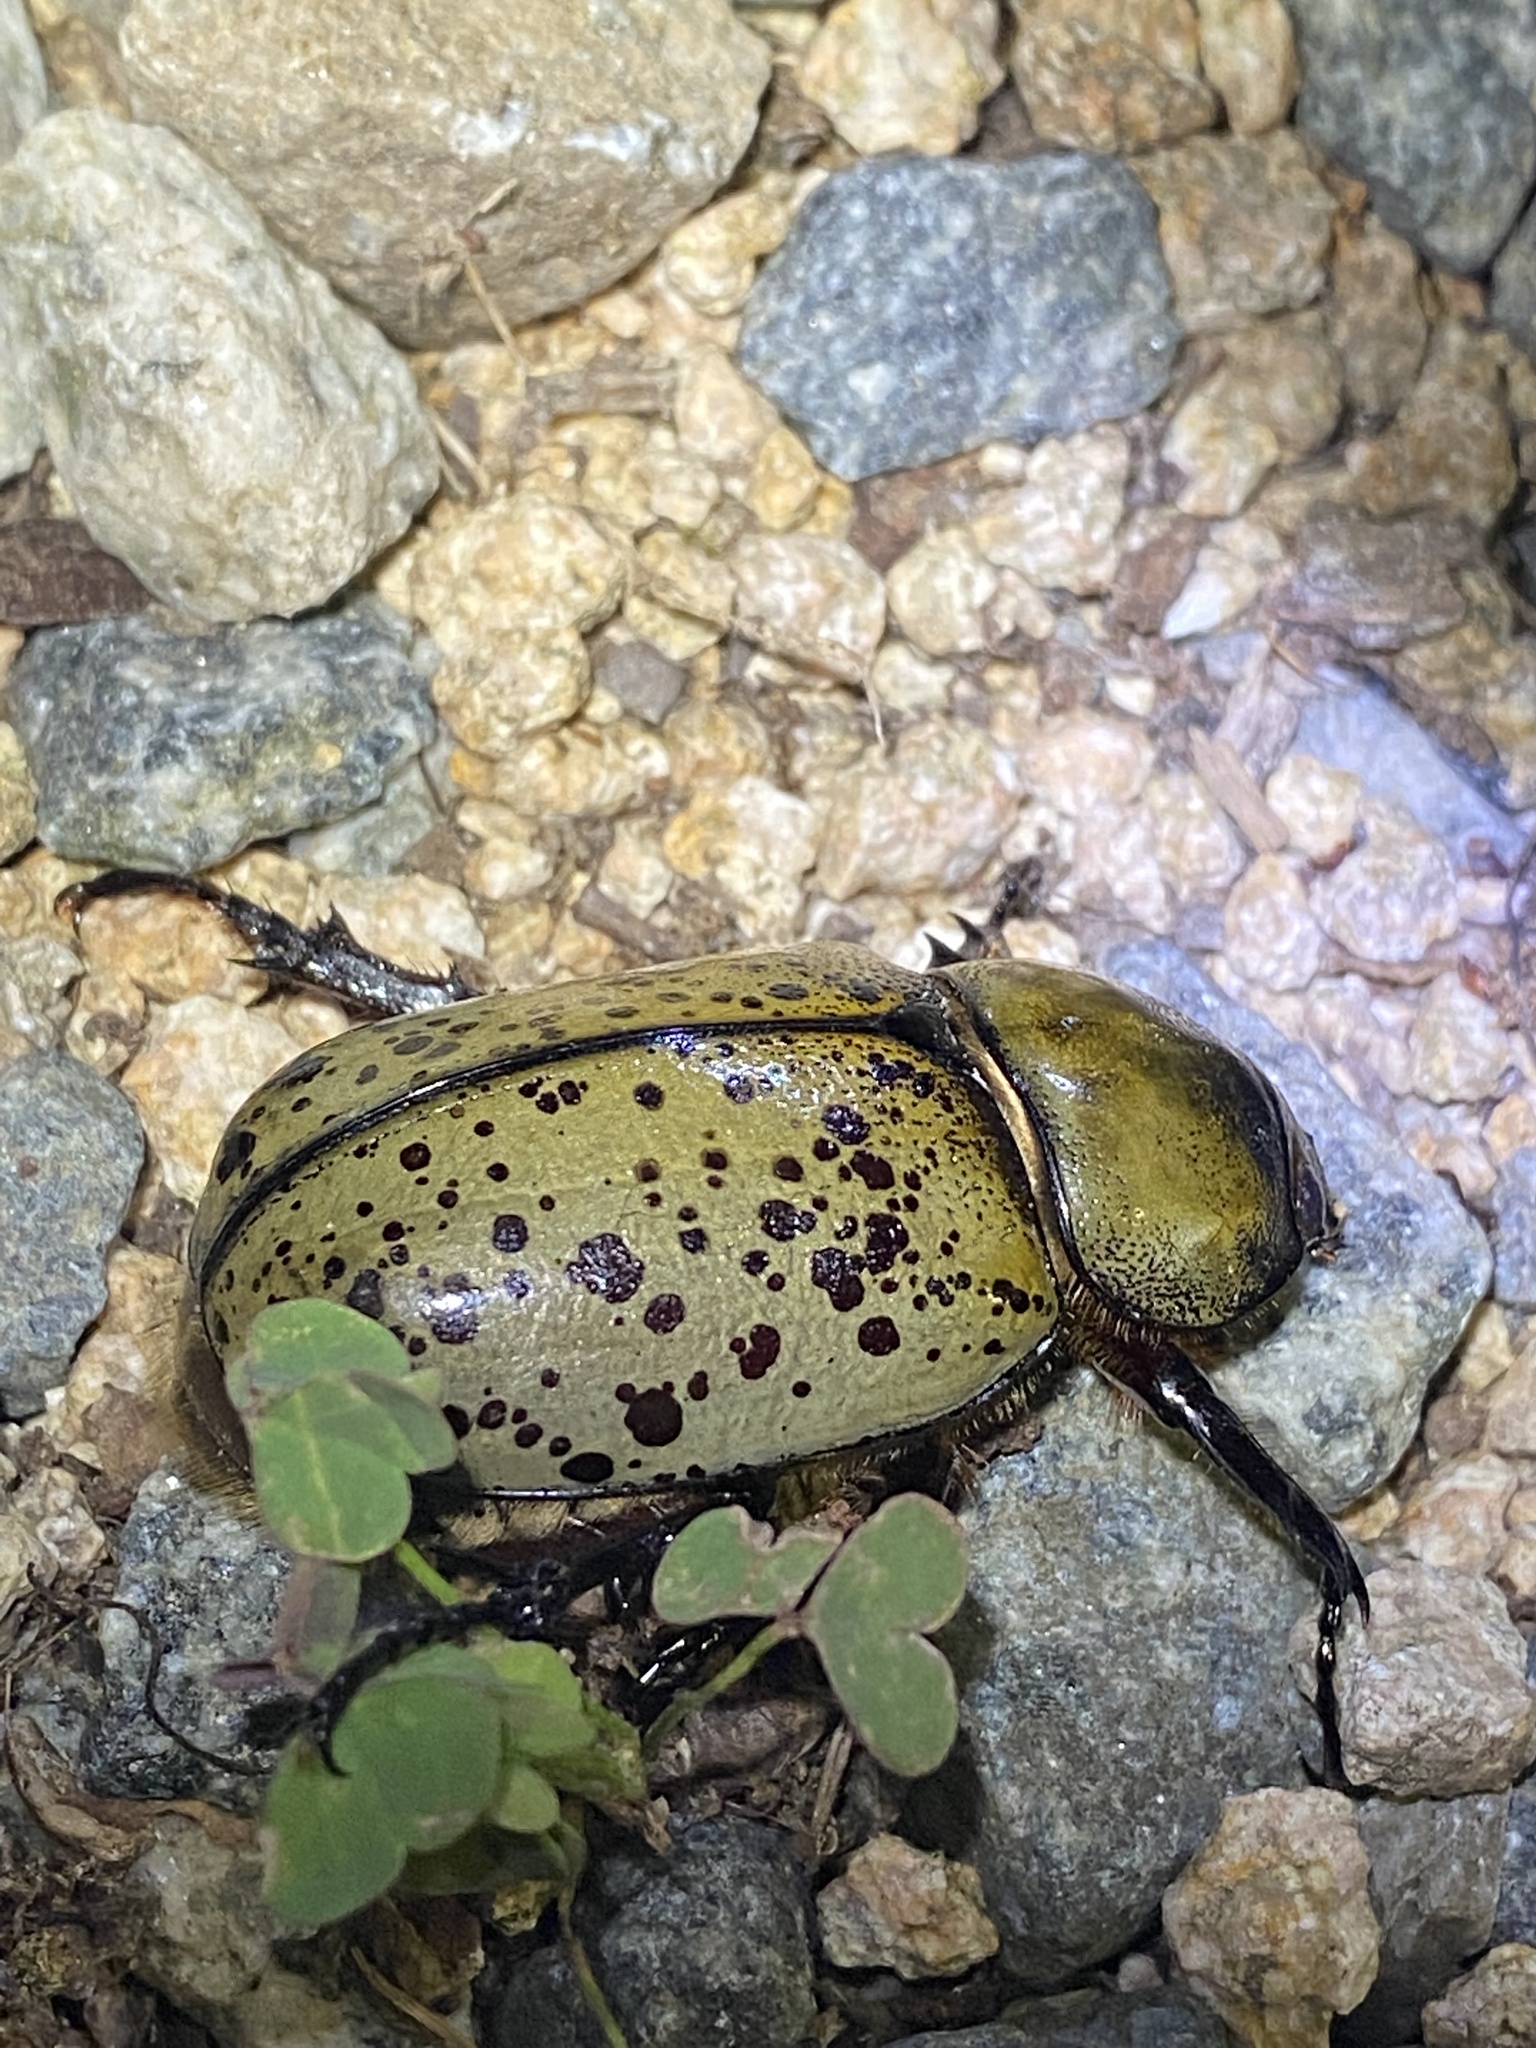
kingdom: Animalia
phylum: Arthropoda
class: Insecta
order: Coleoptera
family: Scarabaeidae
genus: Dynastes
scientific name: Dynastes tityus
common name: Eastern hercules beetle
